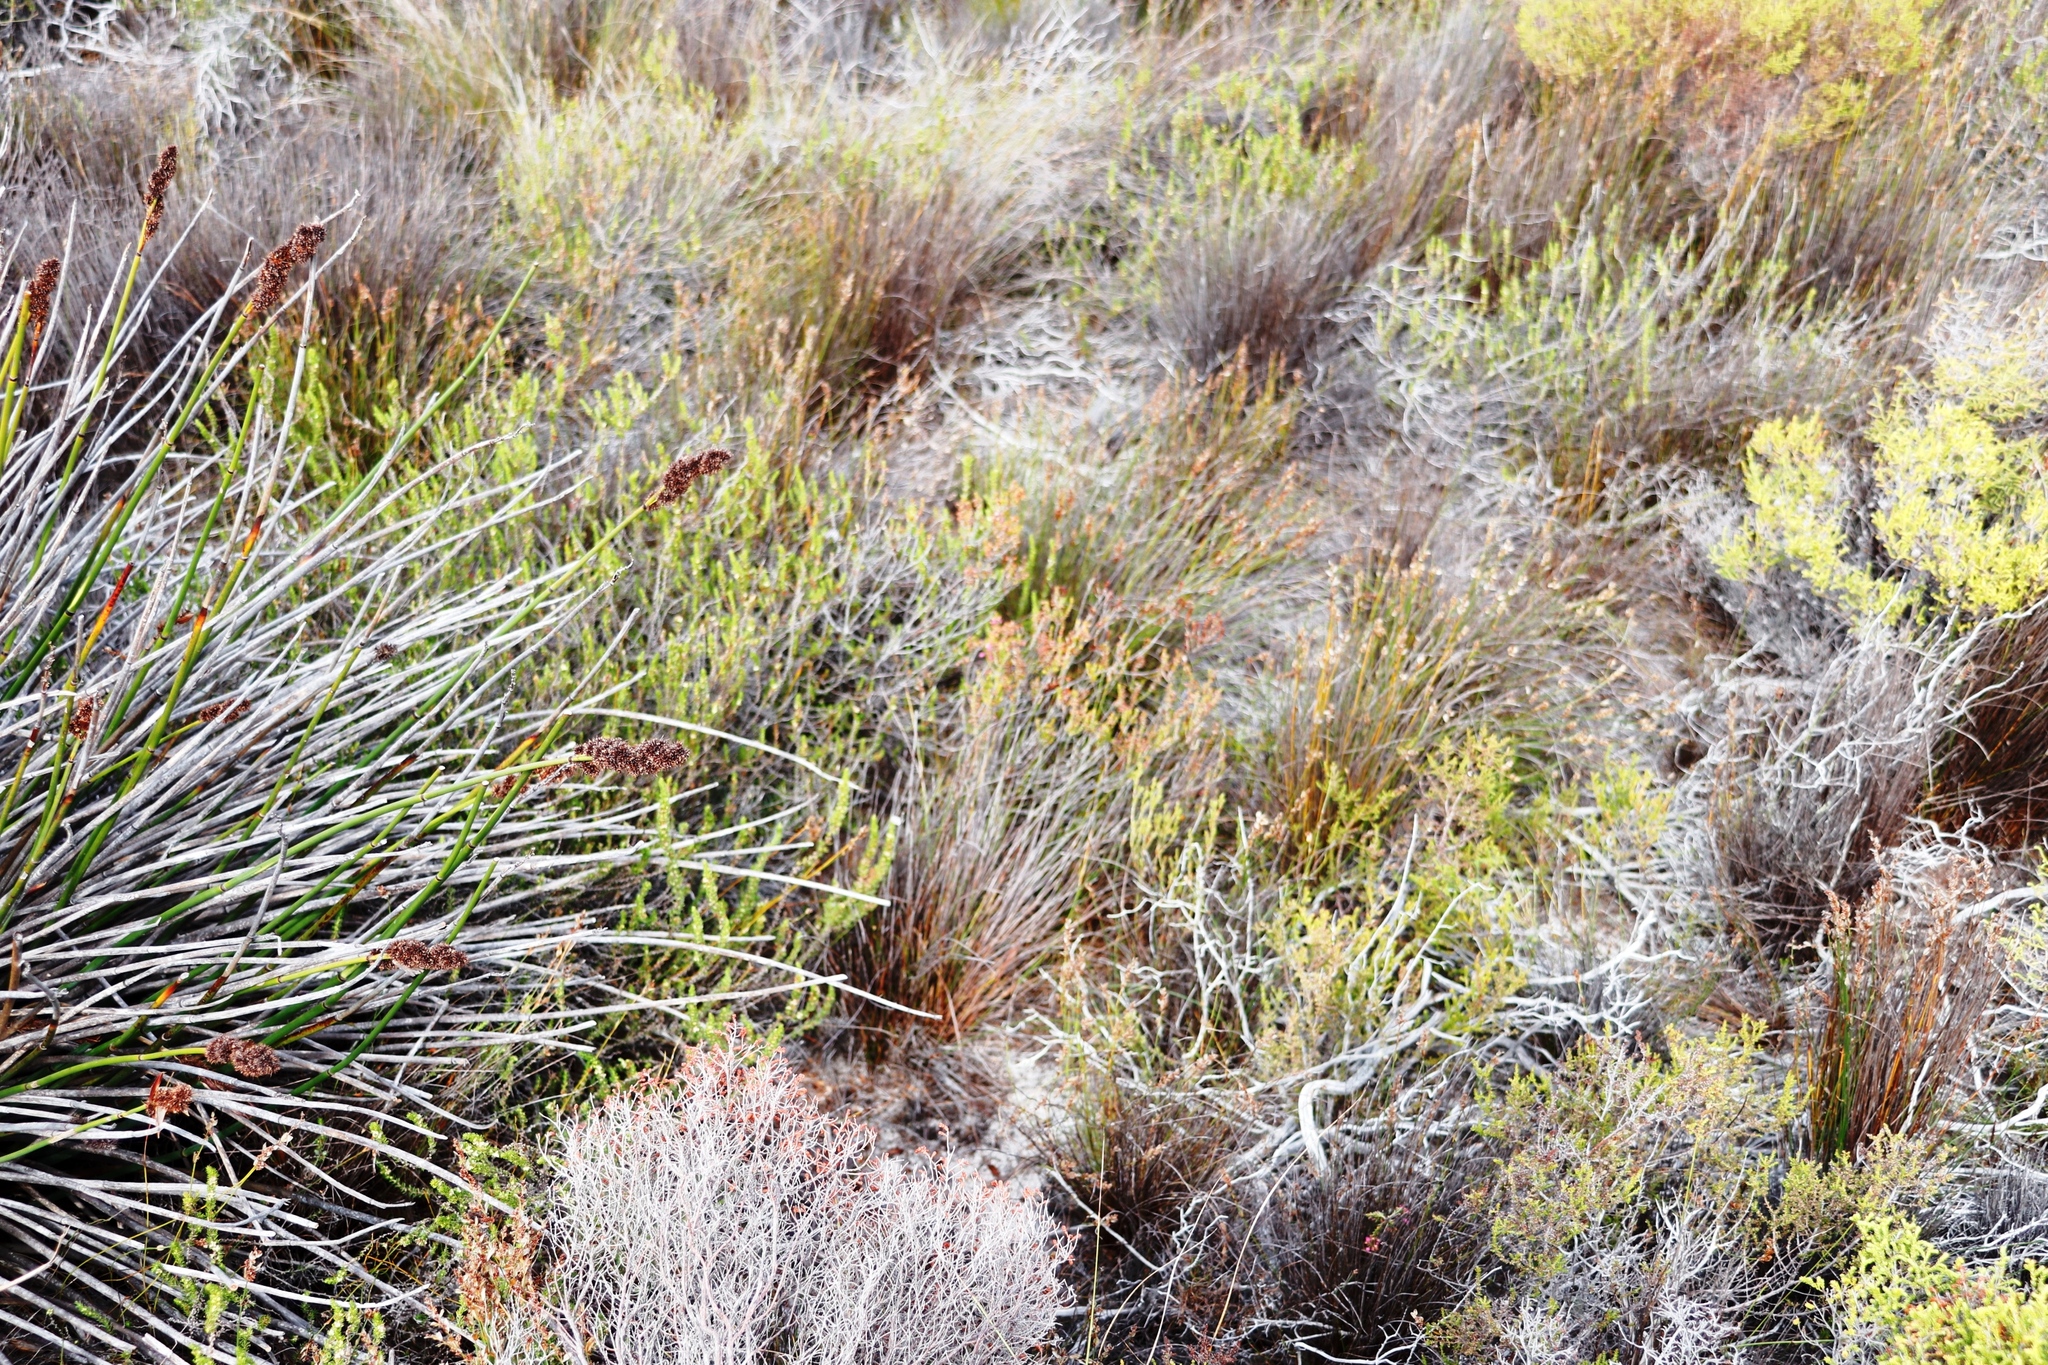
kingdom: Plantae
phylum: Tracheophyta
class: Magnoliopsida
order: Ericales
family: Ericaceae
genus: Erica
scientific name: Erica pulchella
